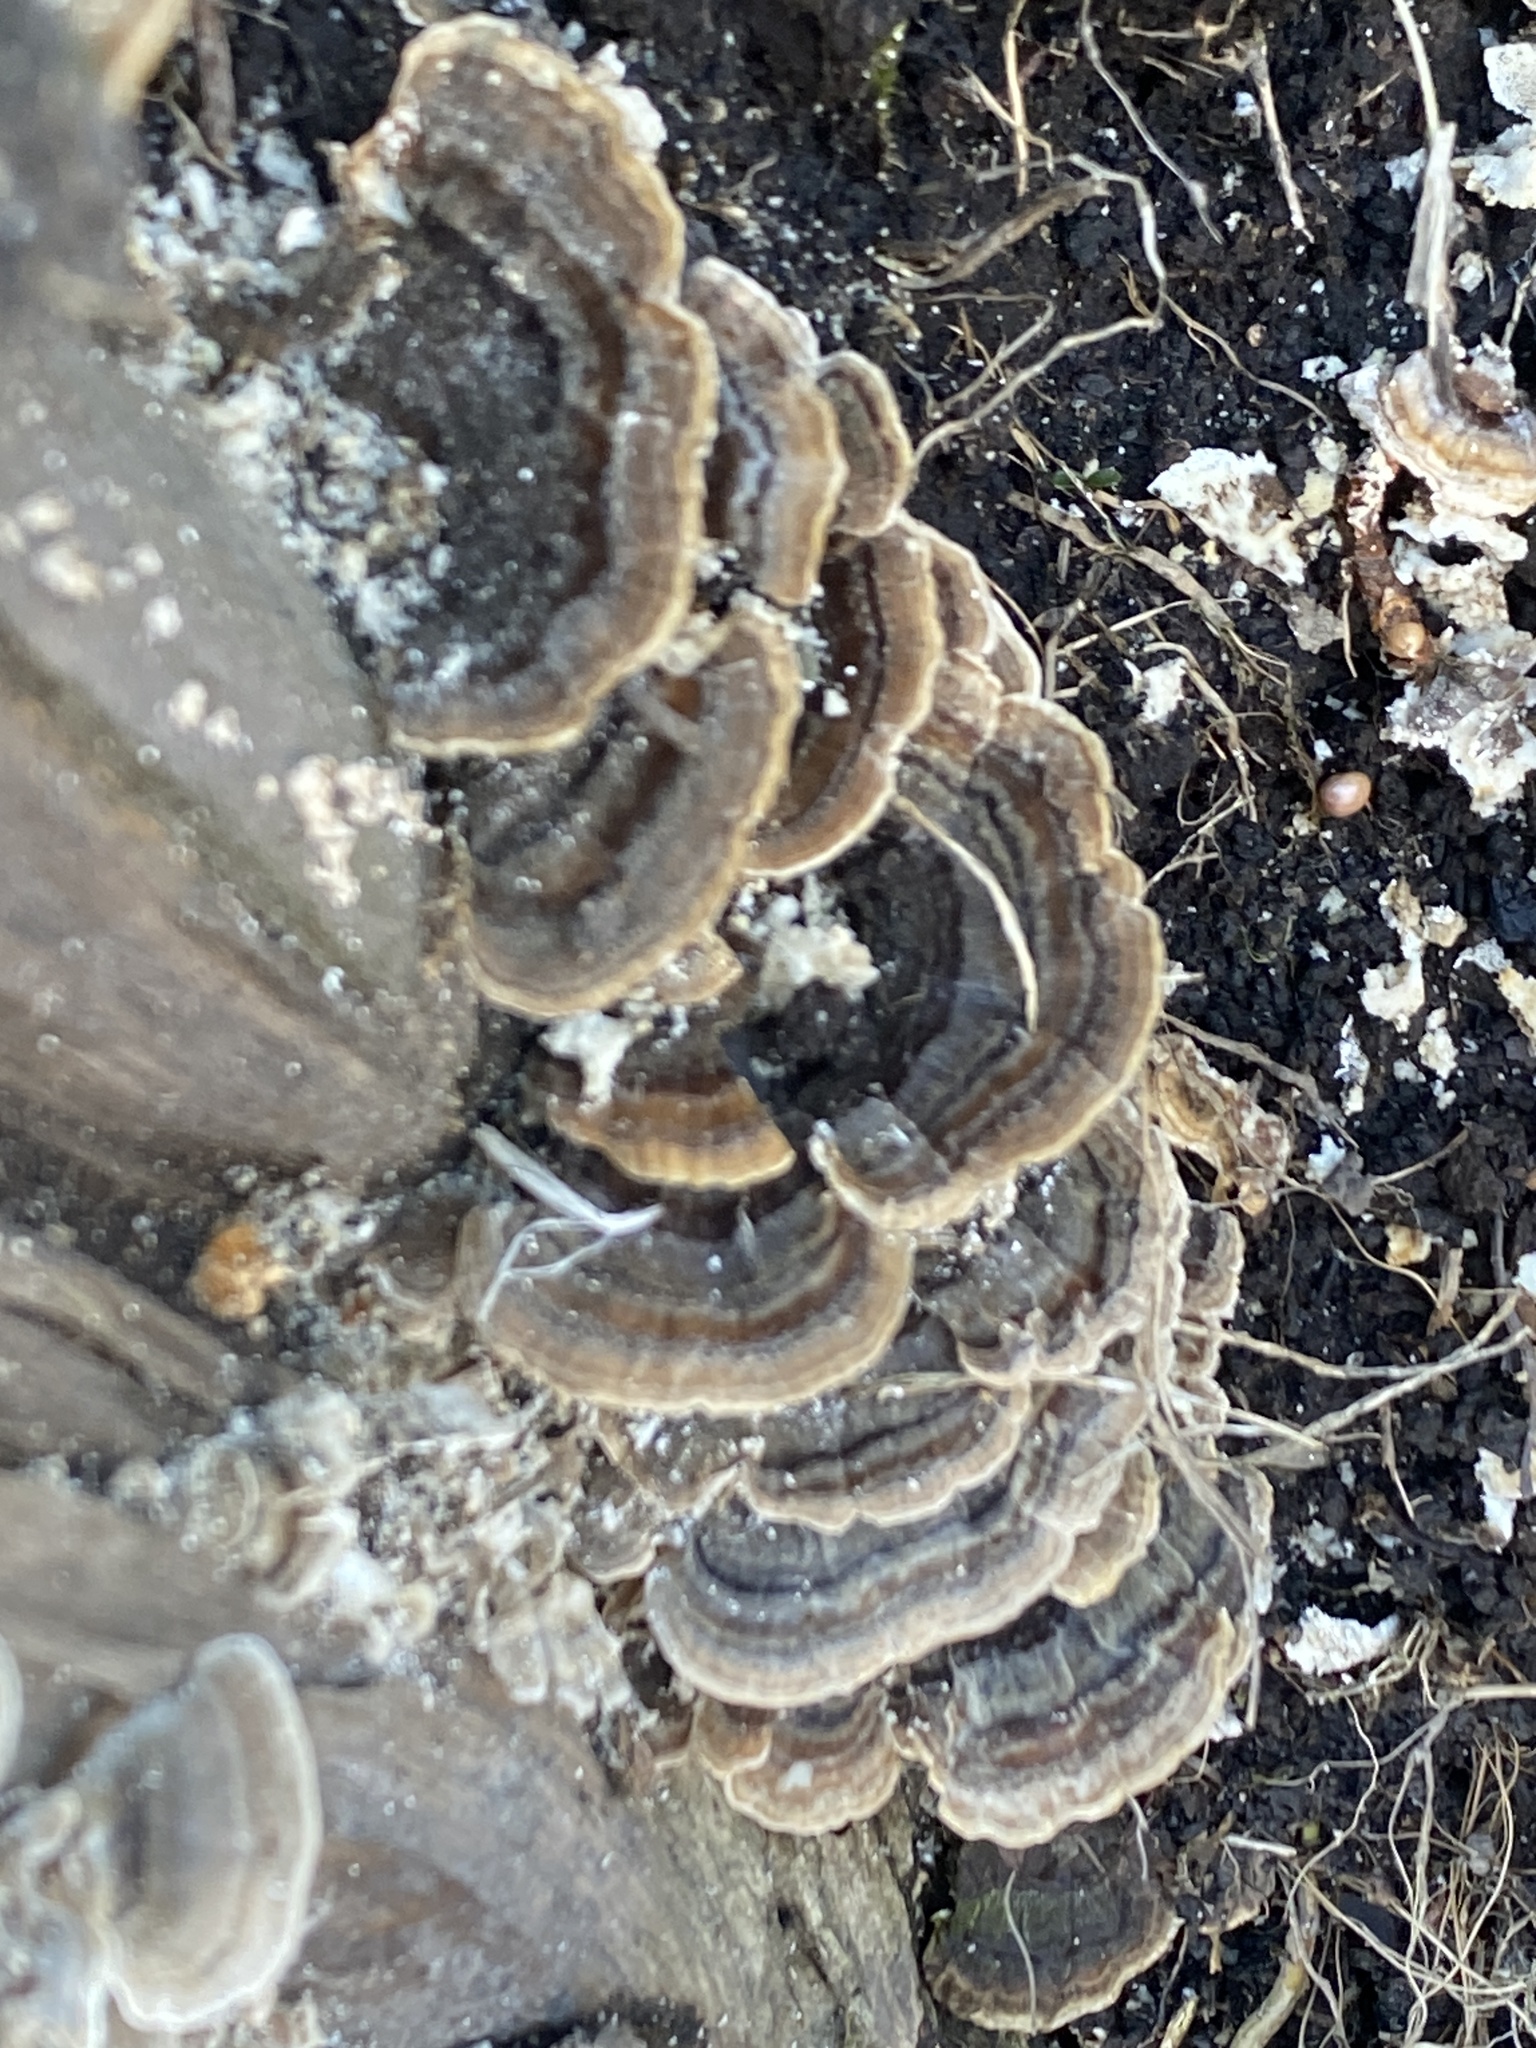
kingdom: Fungi
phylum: Basidiomycota
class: Agaricomycetes
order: Polyporales
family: Polyporaceae
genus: Trametes
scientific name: Trametes versicolor
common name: Turkeytail
